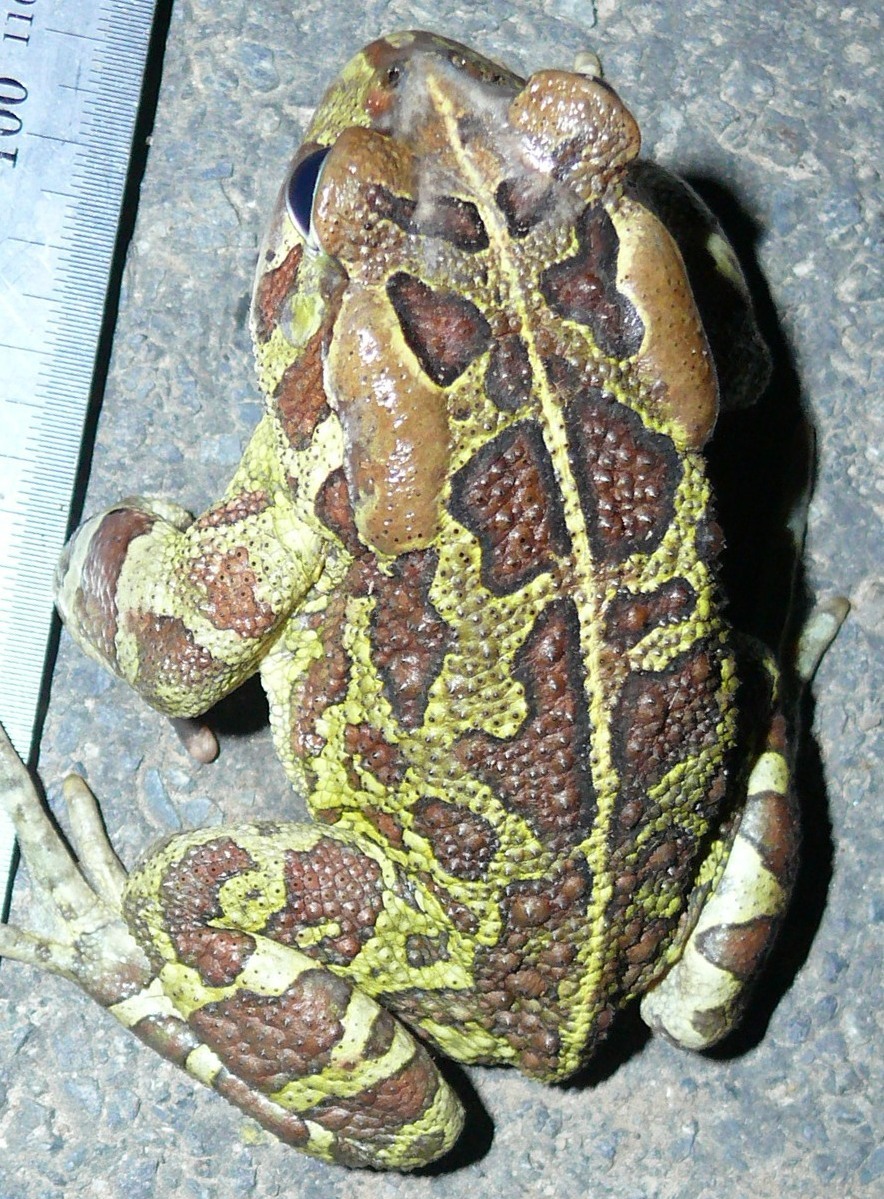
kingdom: Animalia
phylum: Chordata
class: Amphibia
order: Anura
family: Bufonidae
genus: Sclerophrys
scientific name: Sclerophrys pantherina
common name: Panther toad
